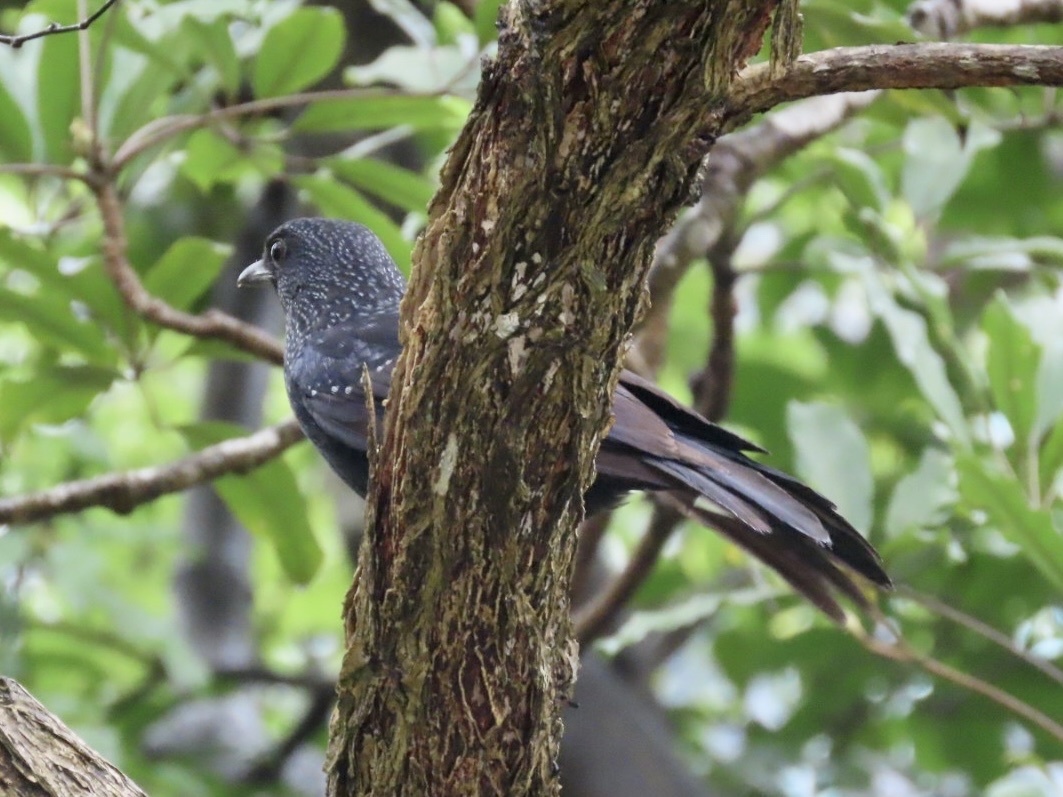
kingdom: Animalia
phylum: Chordata
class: Aves
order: Passeriformes
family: Muscicapidae
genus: Myophonus
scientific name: Myophonus caeruleus
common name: Blue whistling-thrush
